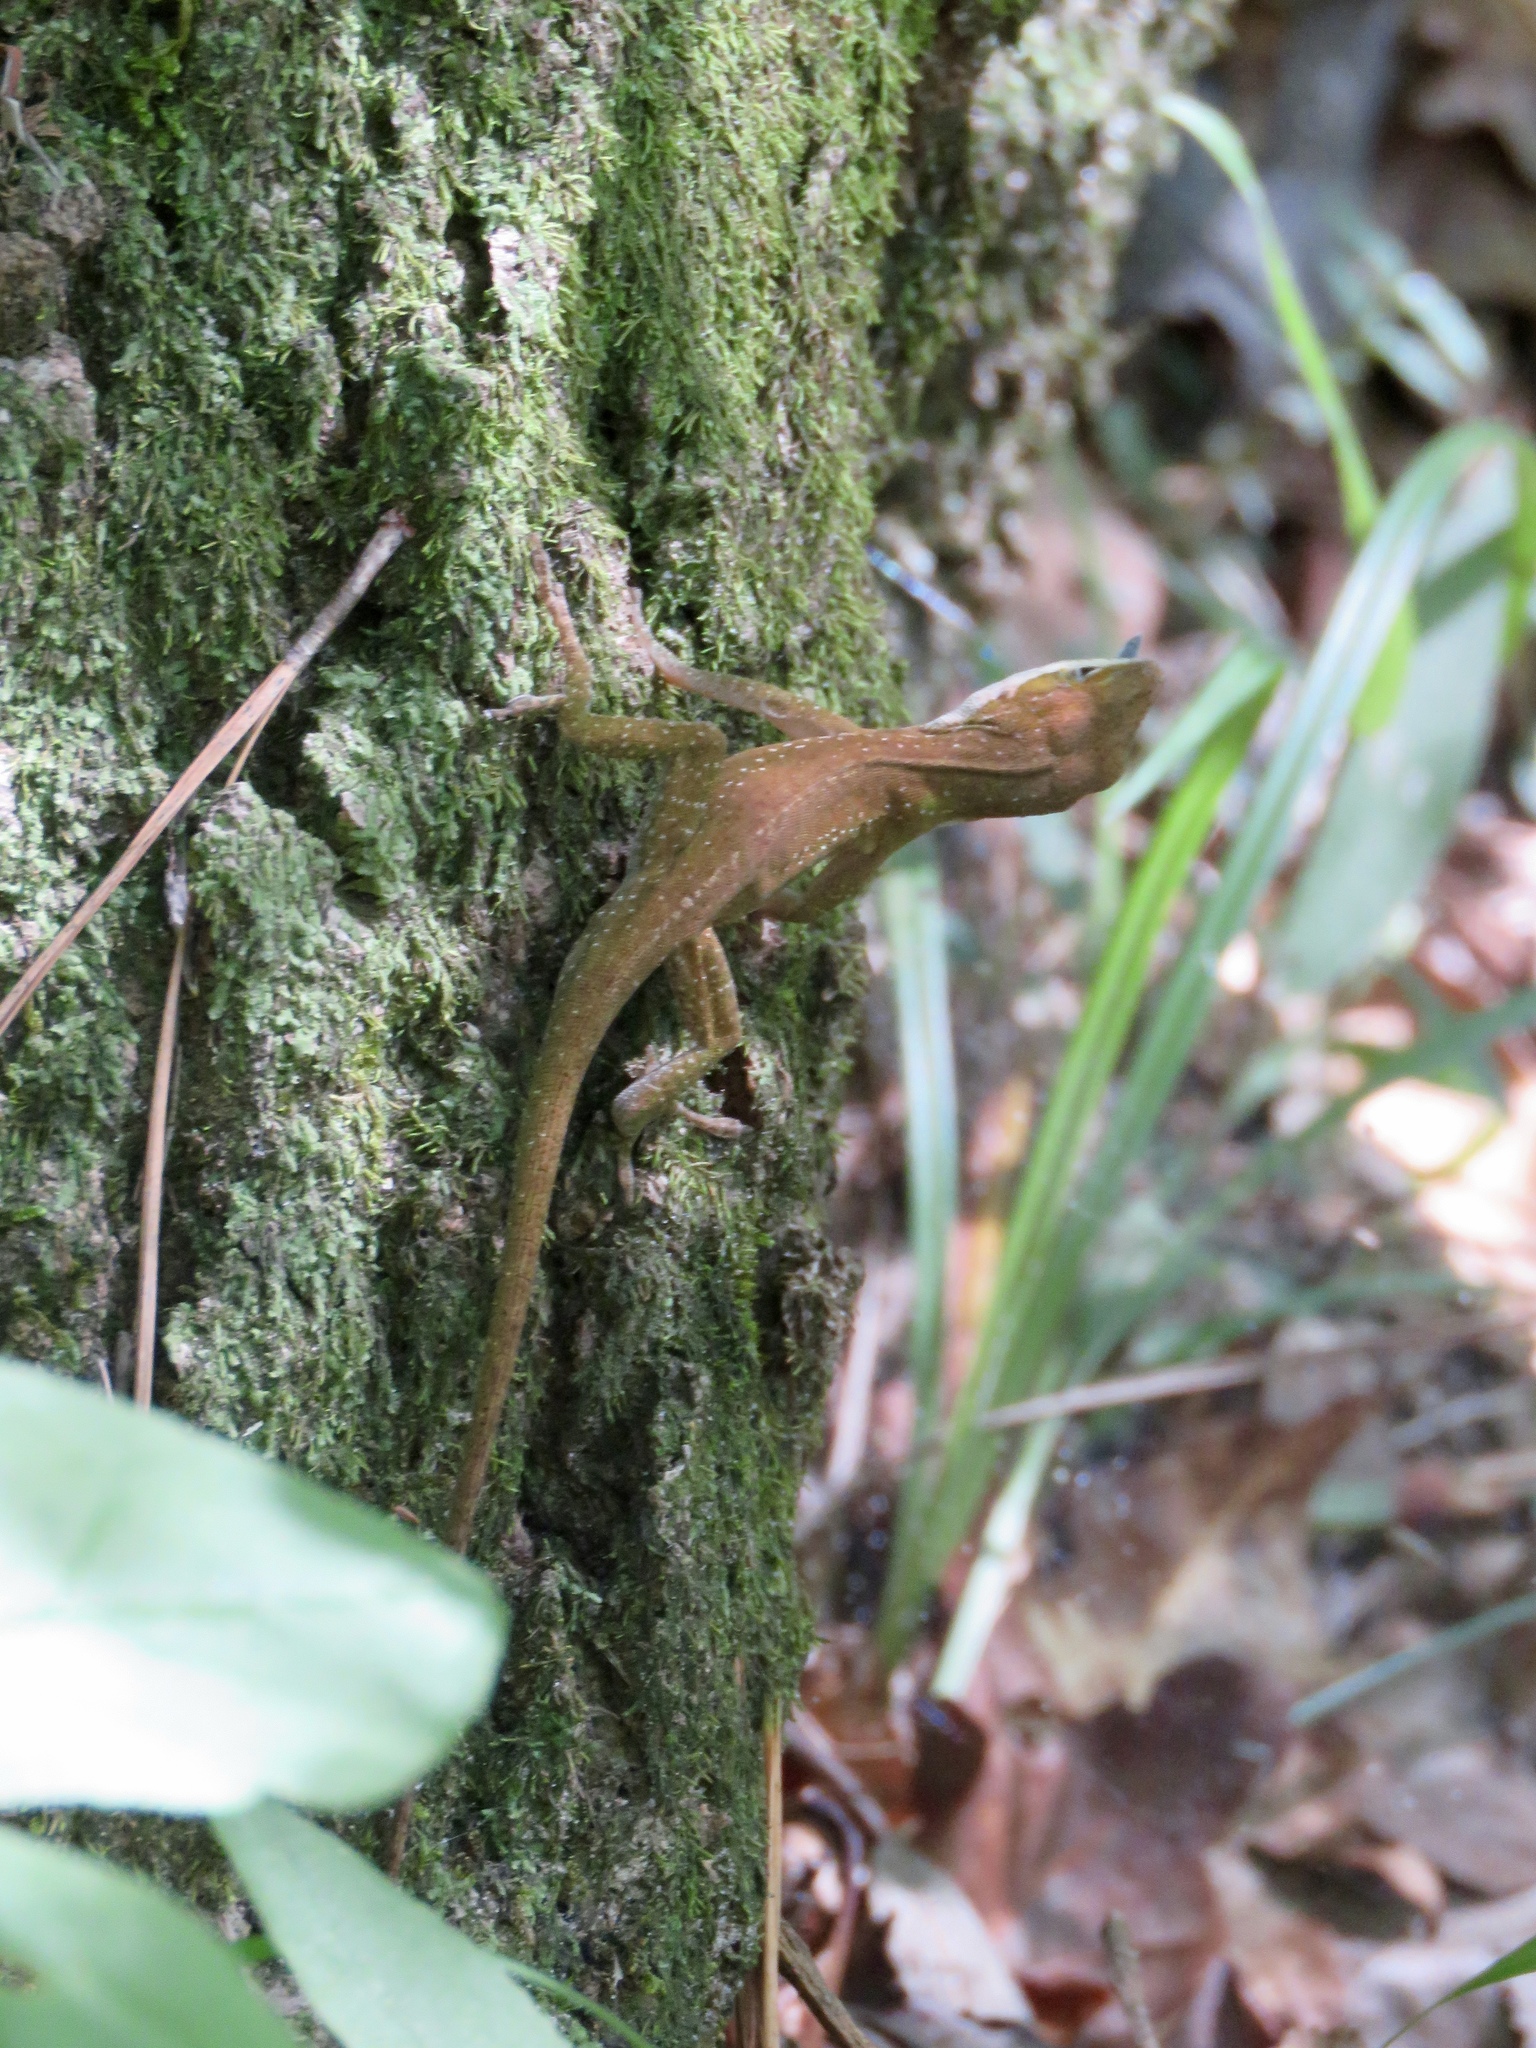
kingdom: Animalia
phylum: Chordata
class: Squamata
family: Dactyloidae
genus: Anolis
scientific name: Anolis carolinensis
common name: Green anole
